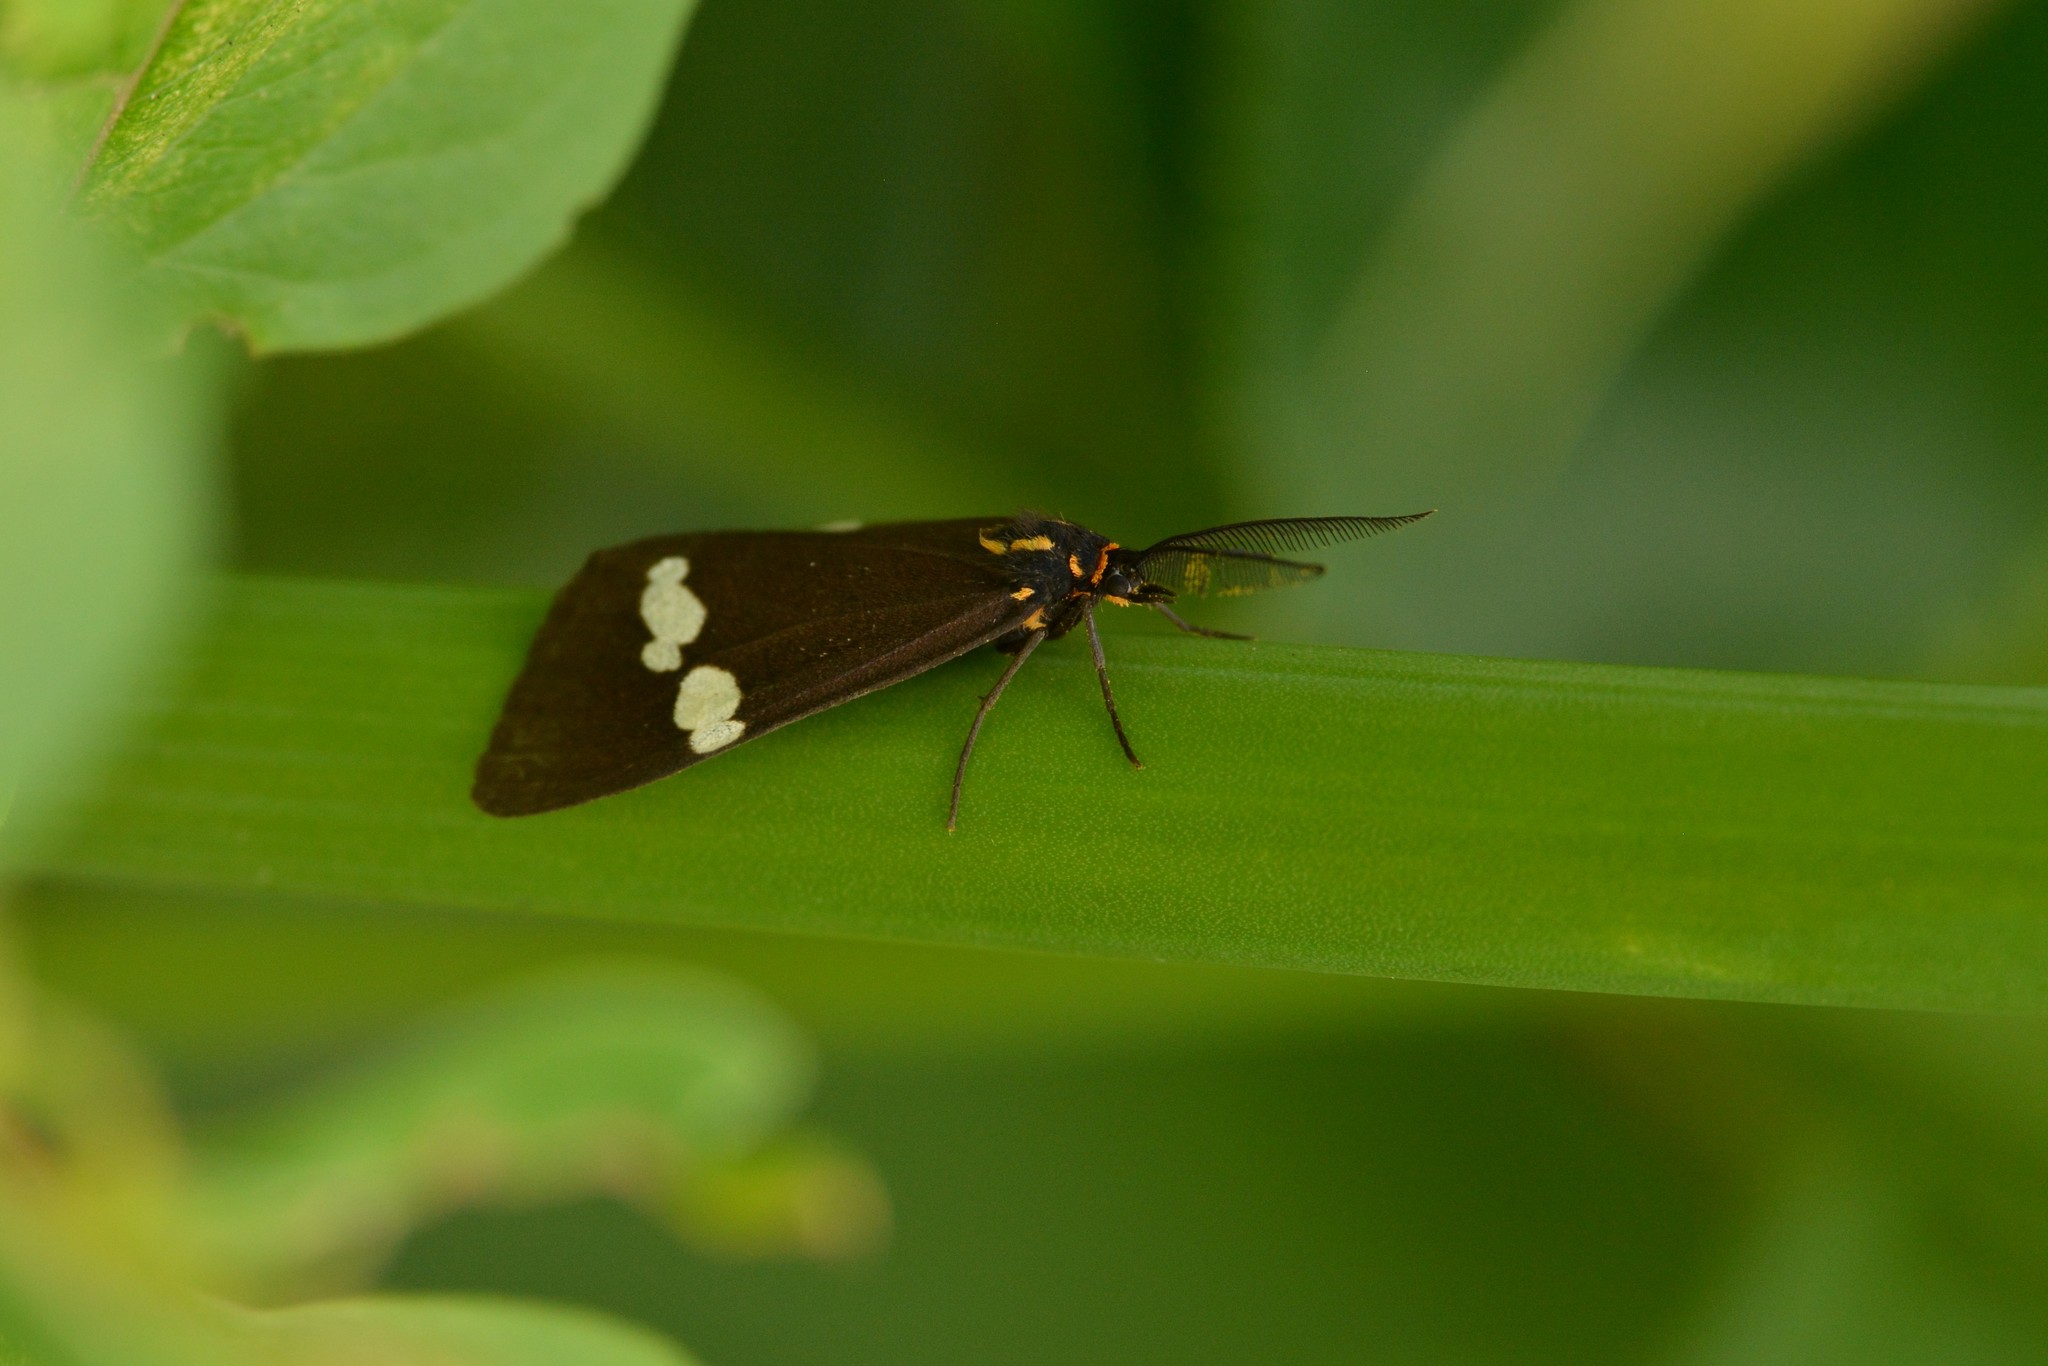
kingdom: Animalia
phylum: Arthropoda
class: Insecta
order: Lepidoptera
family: Erebidae
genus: Nyctemera
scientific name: Nyctemera annulatum
